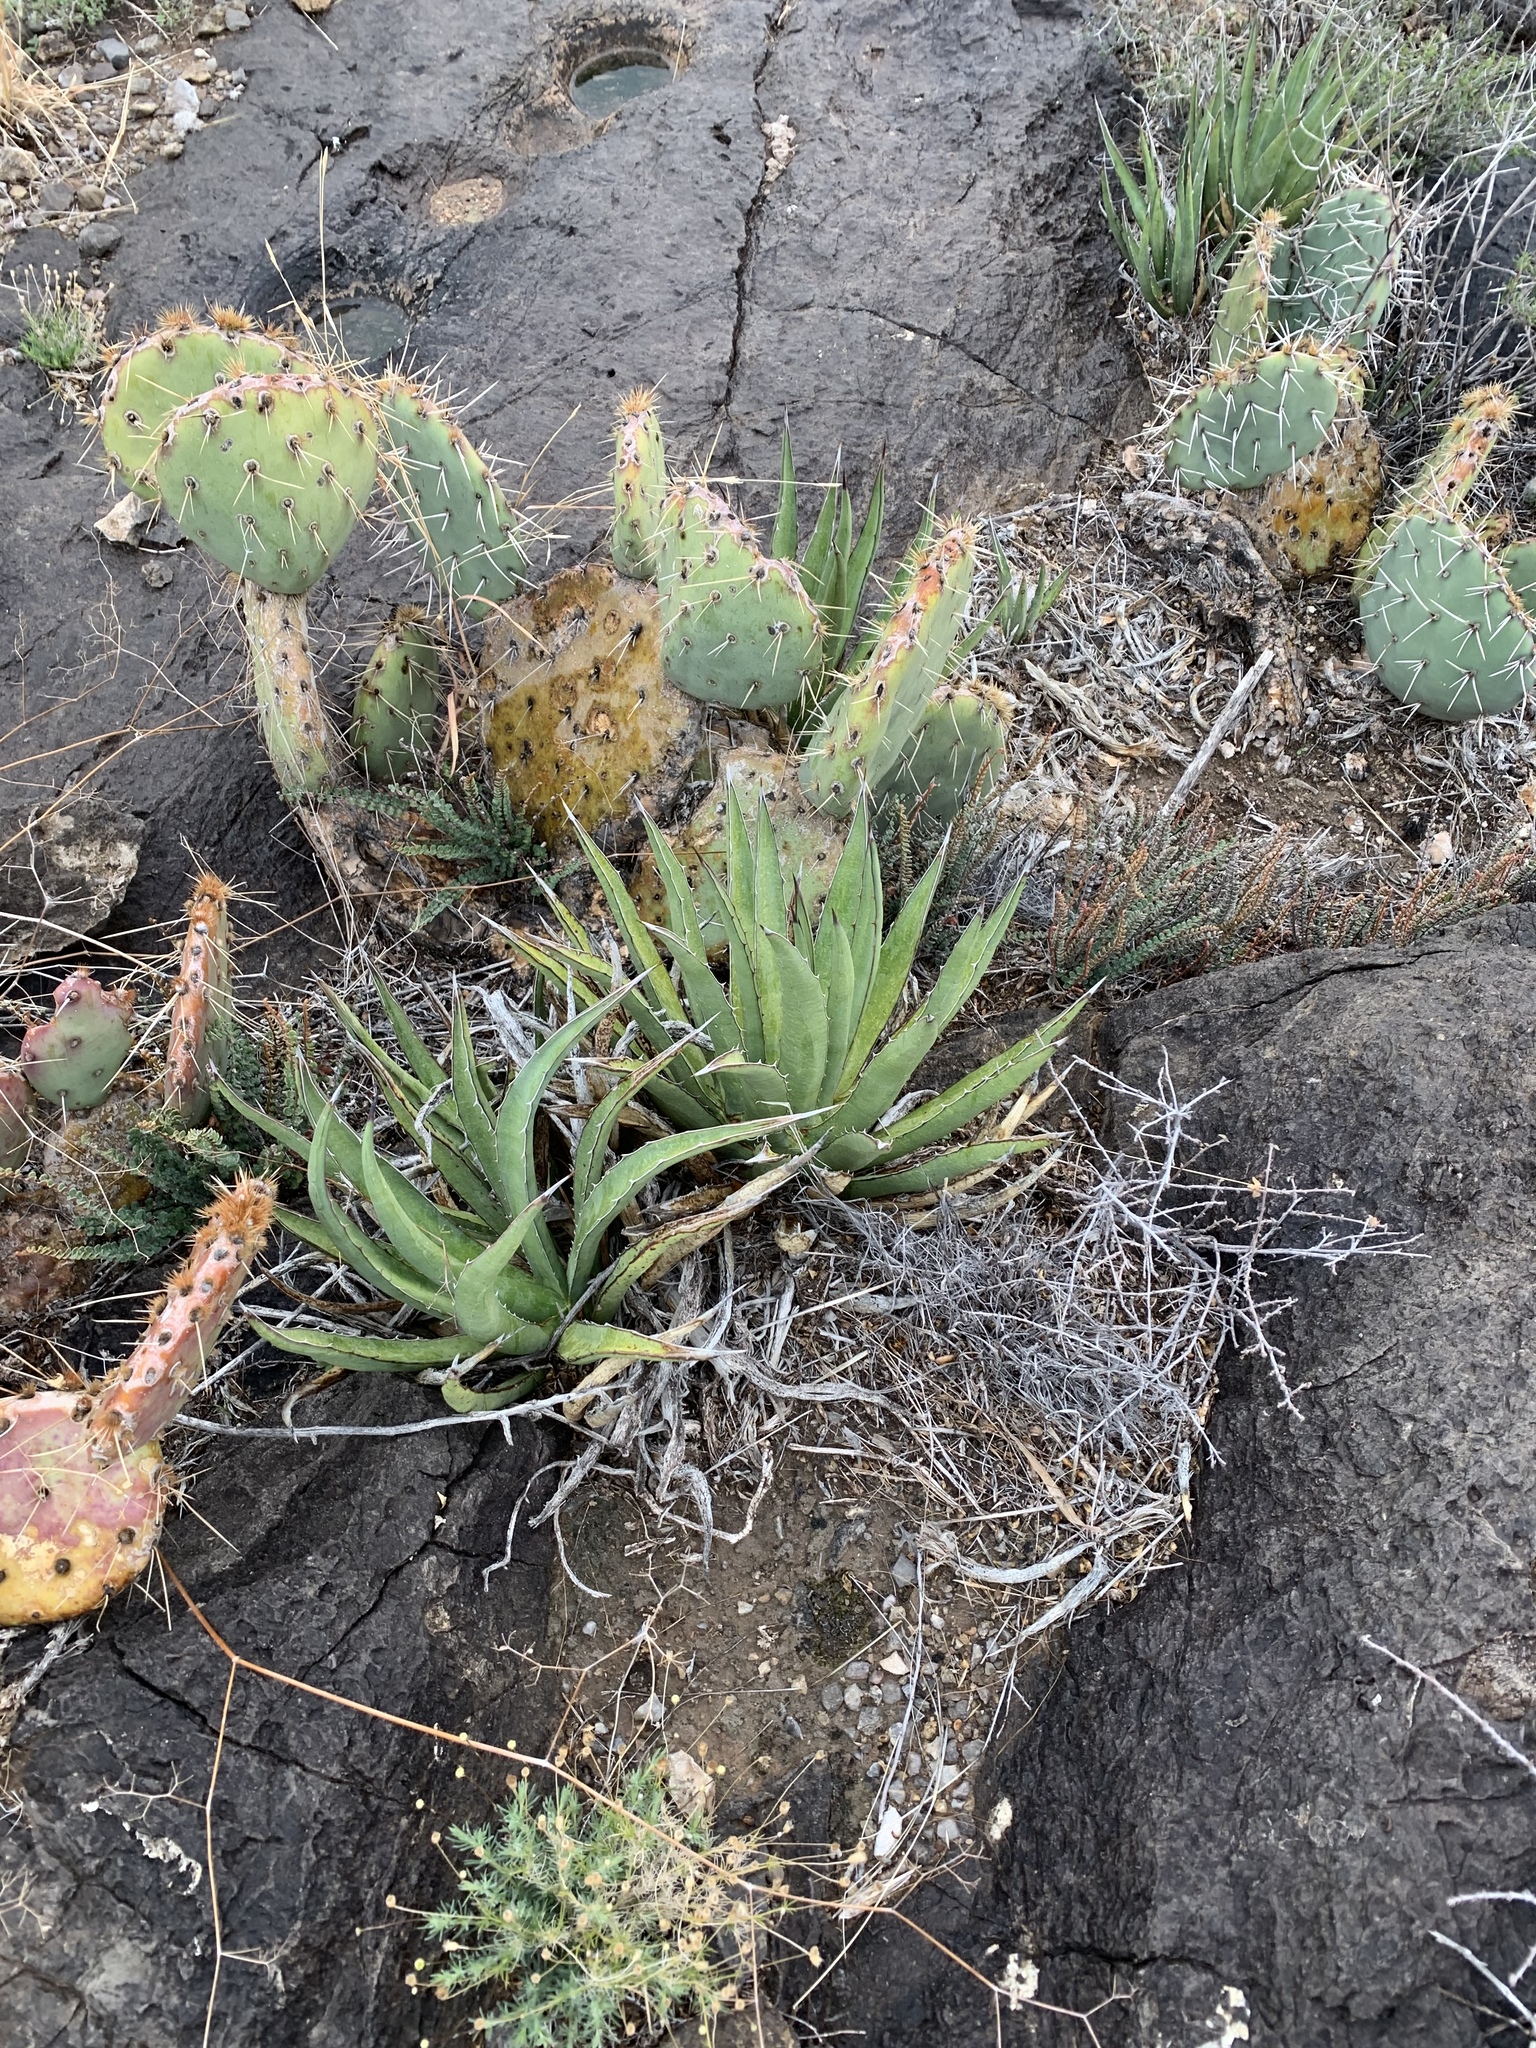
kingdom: Plantae
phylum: Tracheophyta
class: Liliopsida
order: Asparagales
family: Asparagaceae
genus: Agave
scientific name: Agave lechuguilla
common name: Lecheguilla agave
